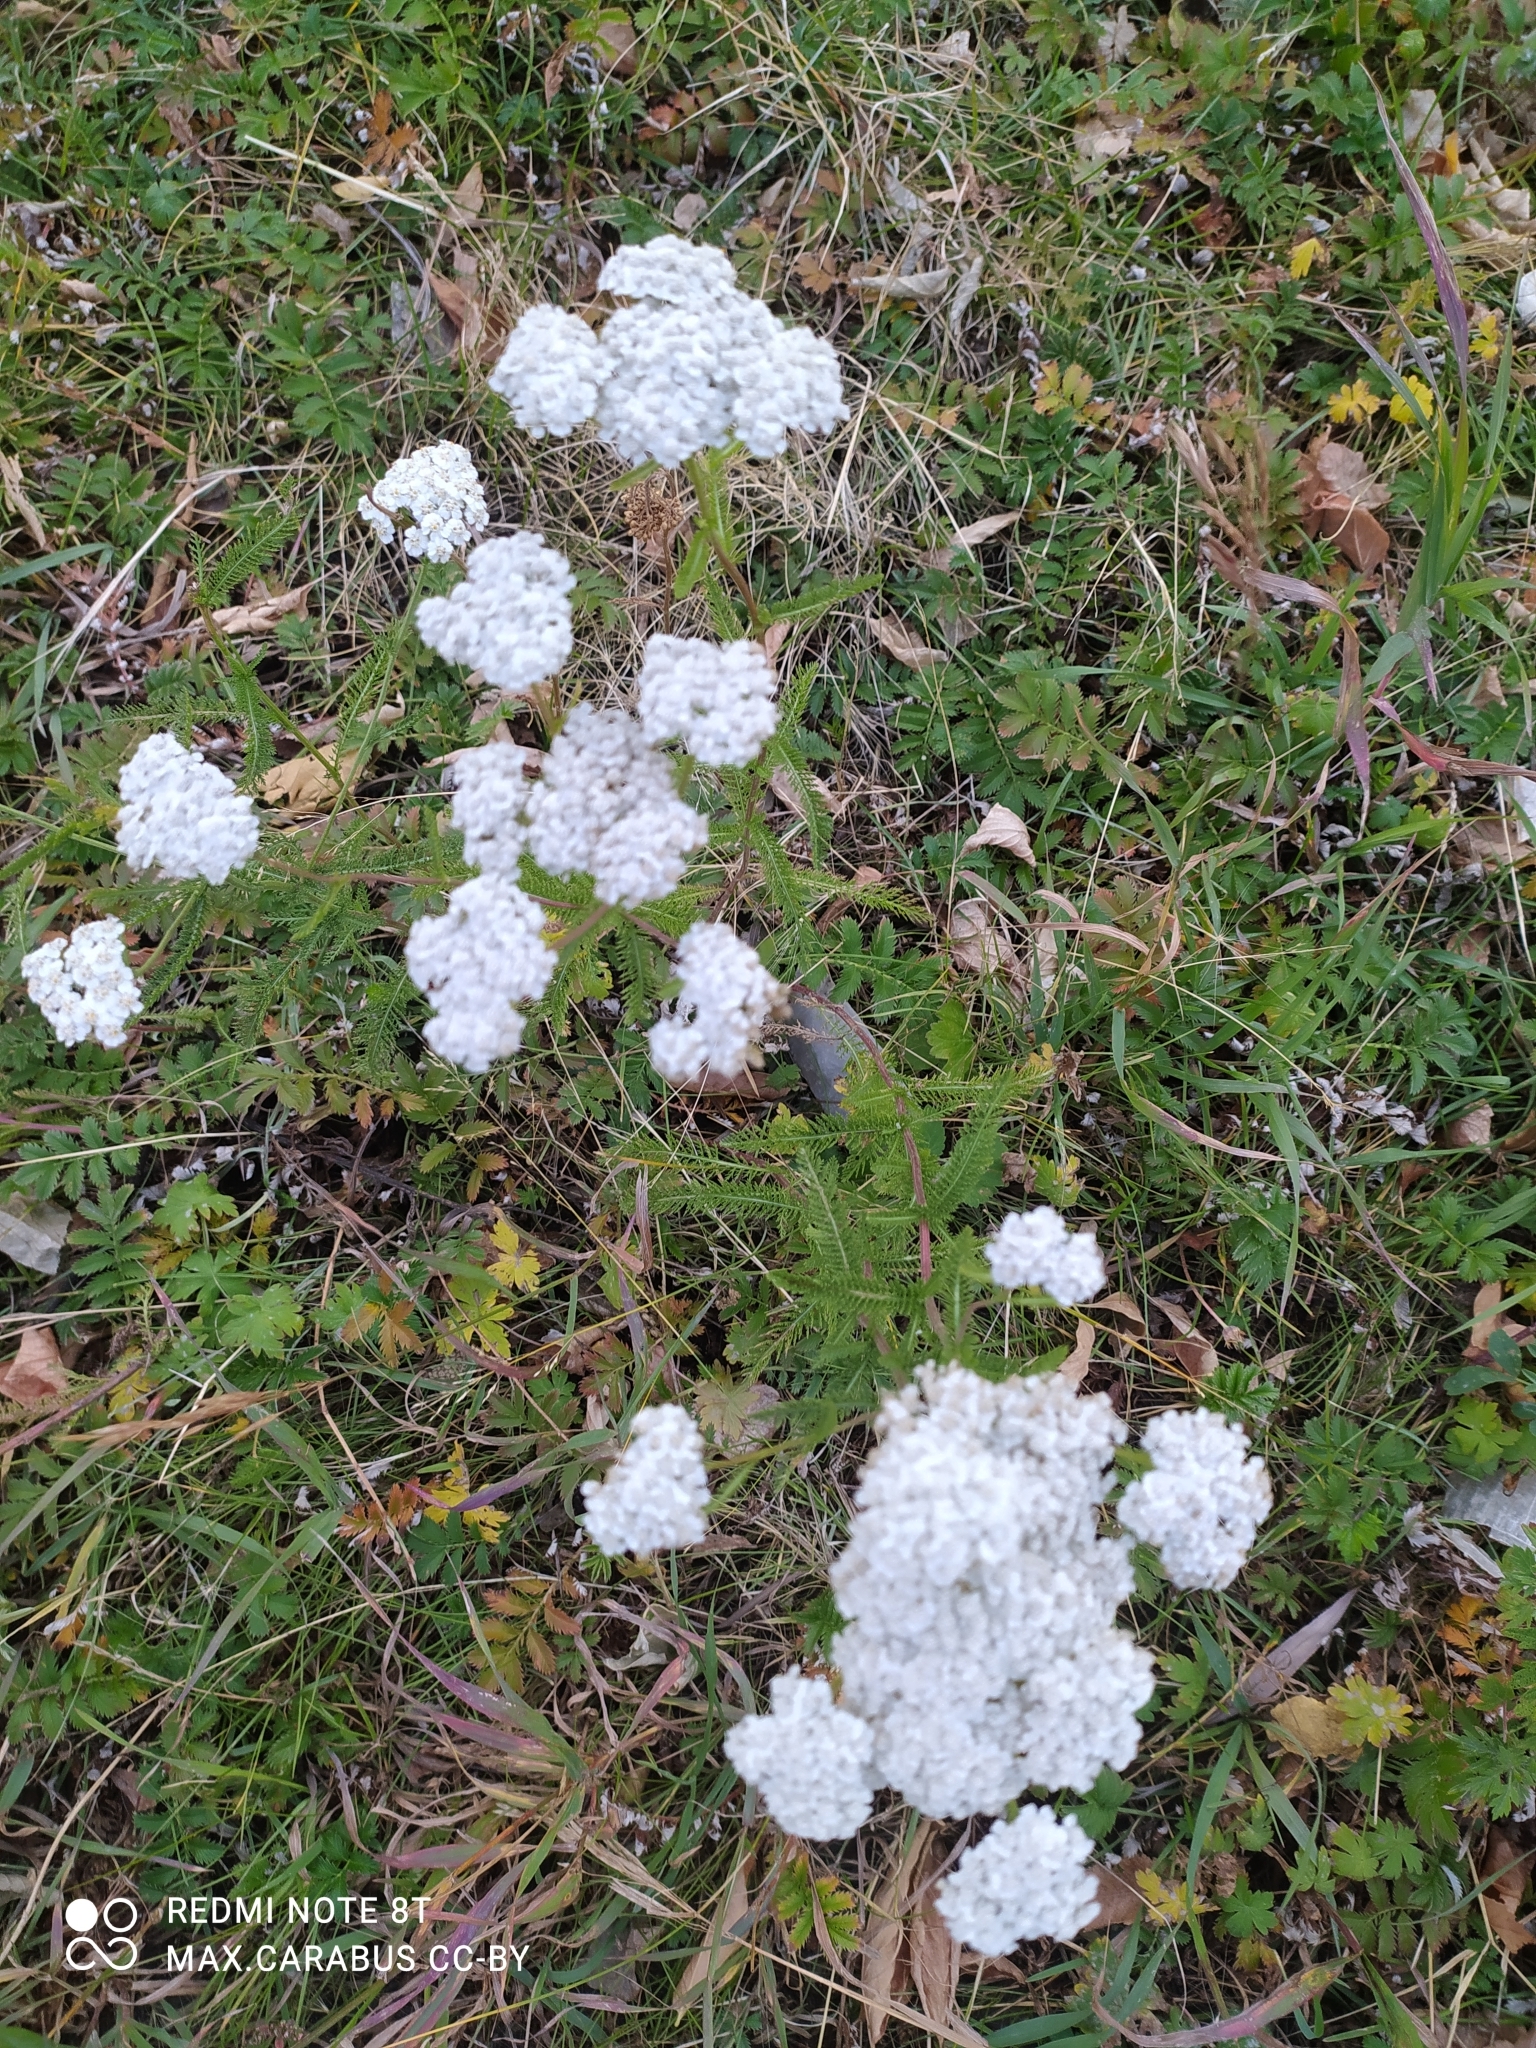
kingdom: Plantae
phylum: Tracheophyta
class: Magnoliopsida
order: Asterales
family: Asteraceae
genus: Achillea
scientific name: Achillea millefolium
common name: Yarrow
